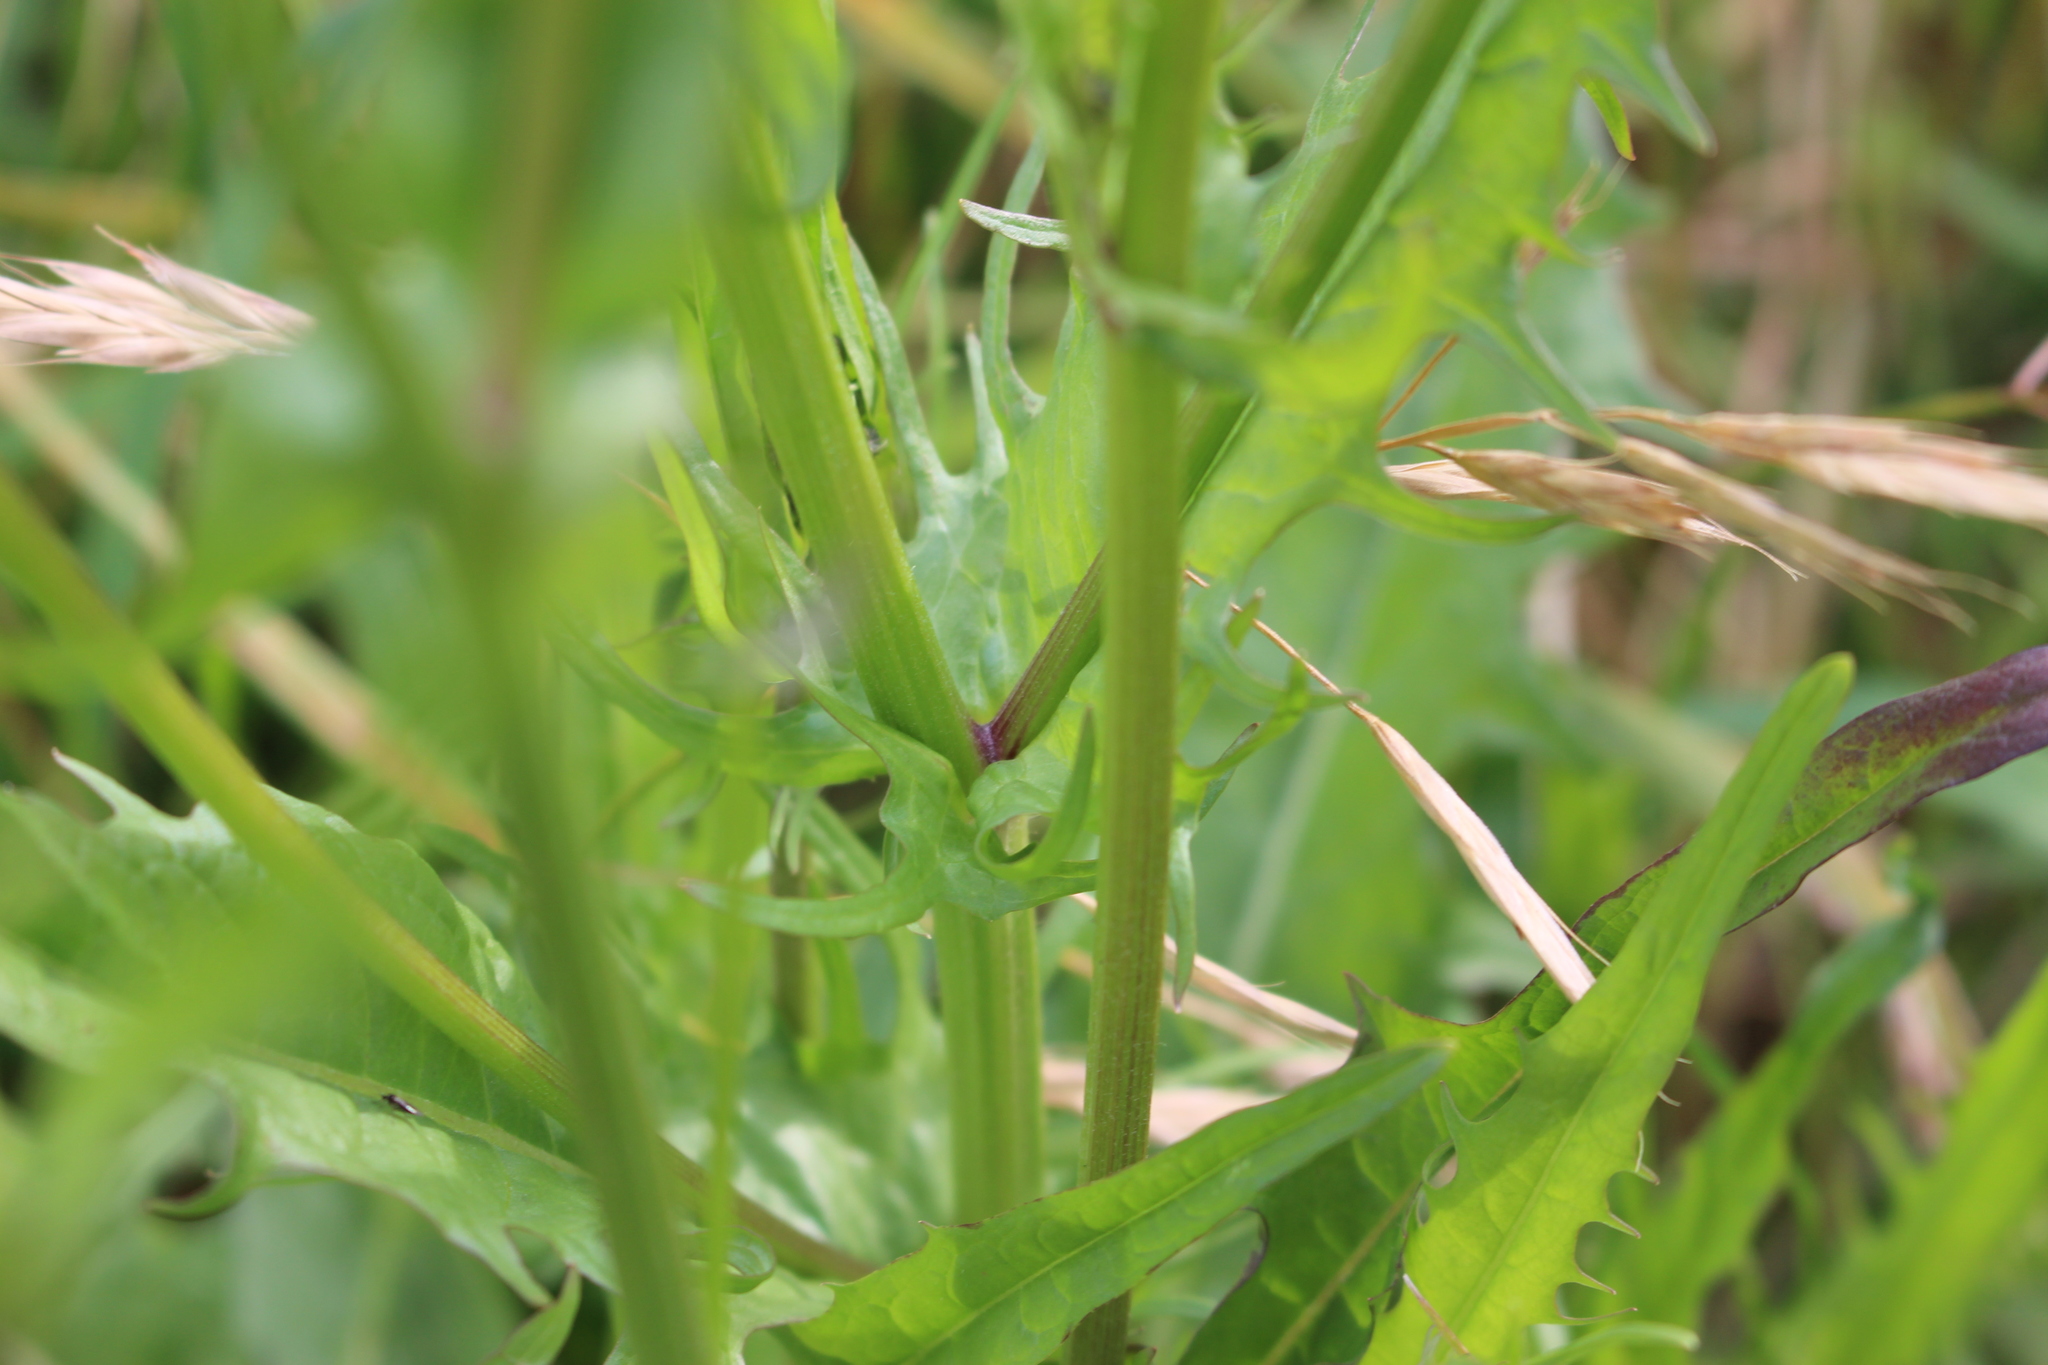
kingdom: Plantae
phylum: Tracheophyta
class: Magnoliopsida
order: Asterales
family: Asteraceae
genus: Crepis
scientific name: Crepis capillaris
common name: Smooth hawksbeard
